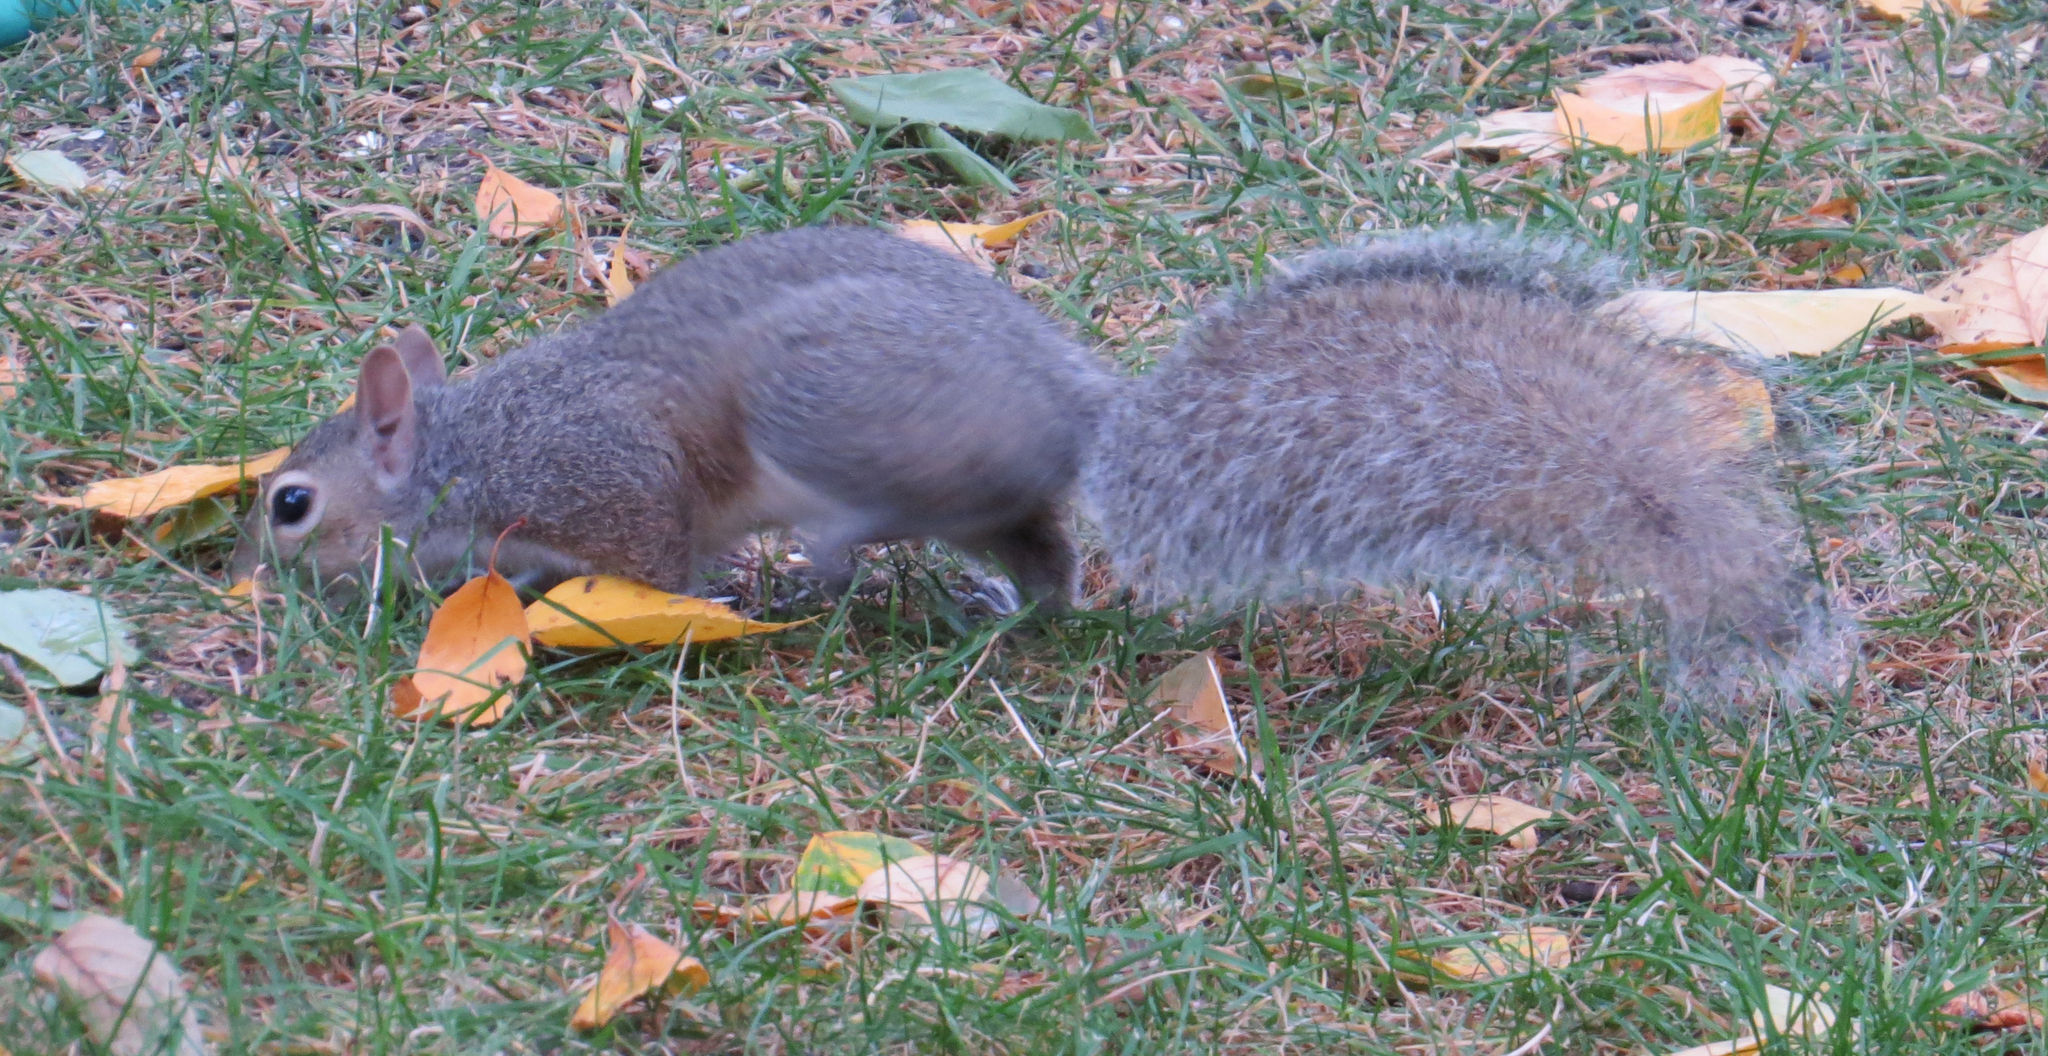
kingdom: Animalia
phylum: Chordata
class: Mammalia
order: Rodentia
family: Sciuridae
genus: Sciurus
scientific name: Sciurus carolinensis
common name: Eastern gray squirrel
